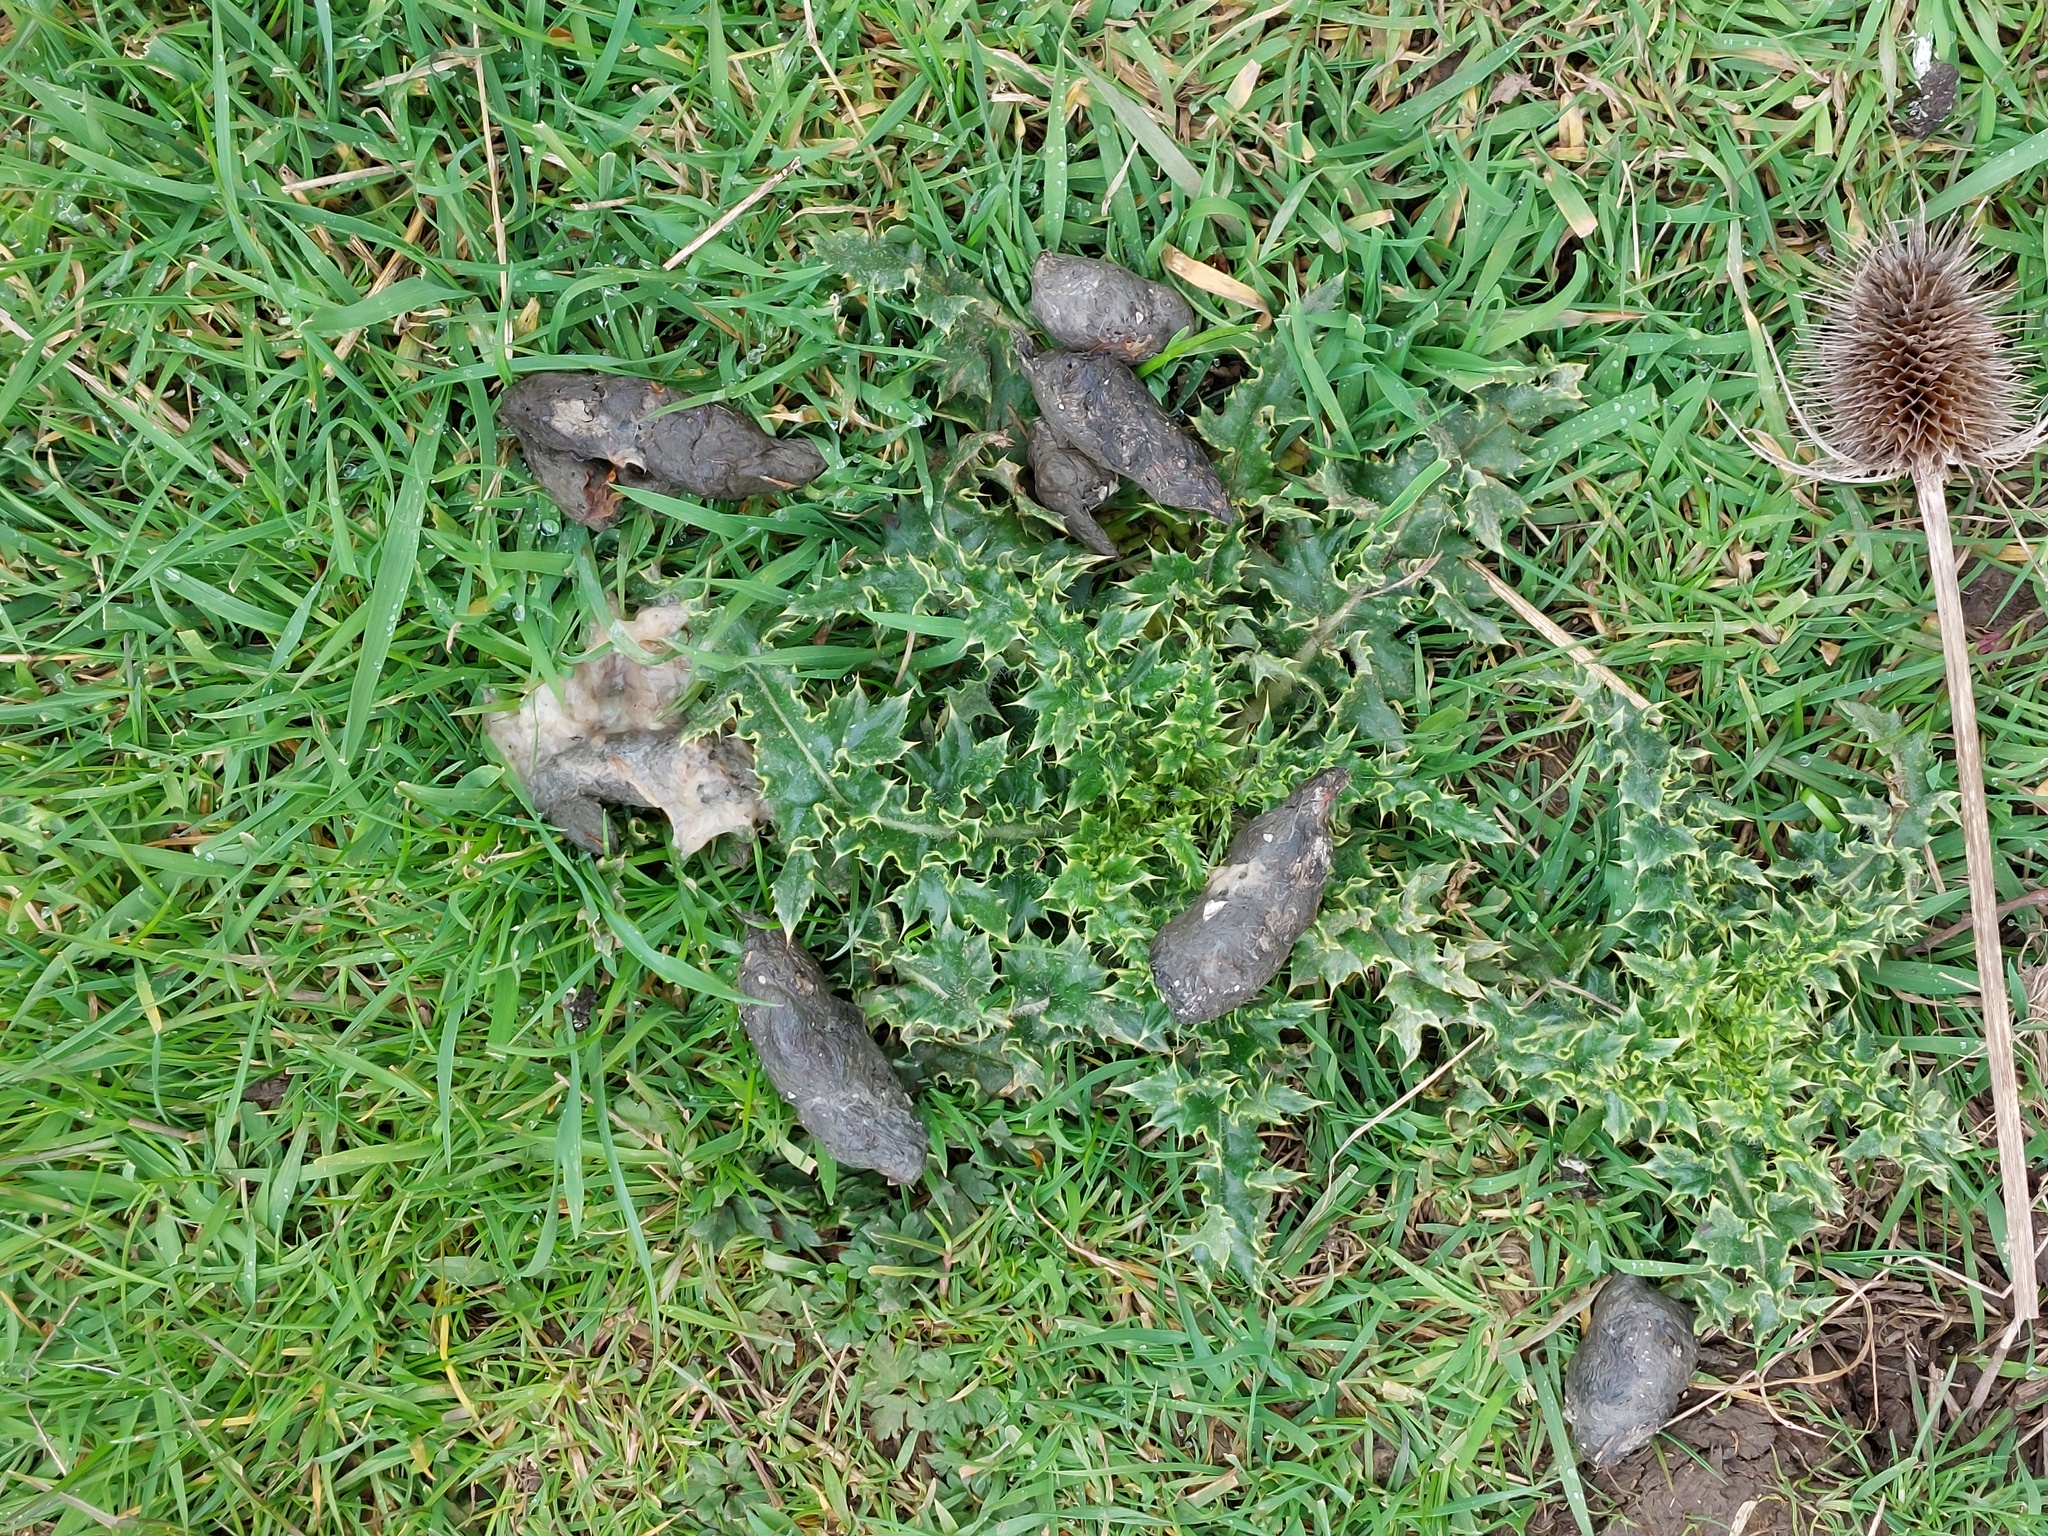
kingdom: Animalia
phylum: Chordata
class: Mammalia
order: Carnivora
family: Canidae
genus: Vulpes
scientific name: Vulpes vulpes
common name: Red fox
